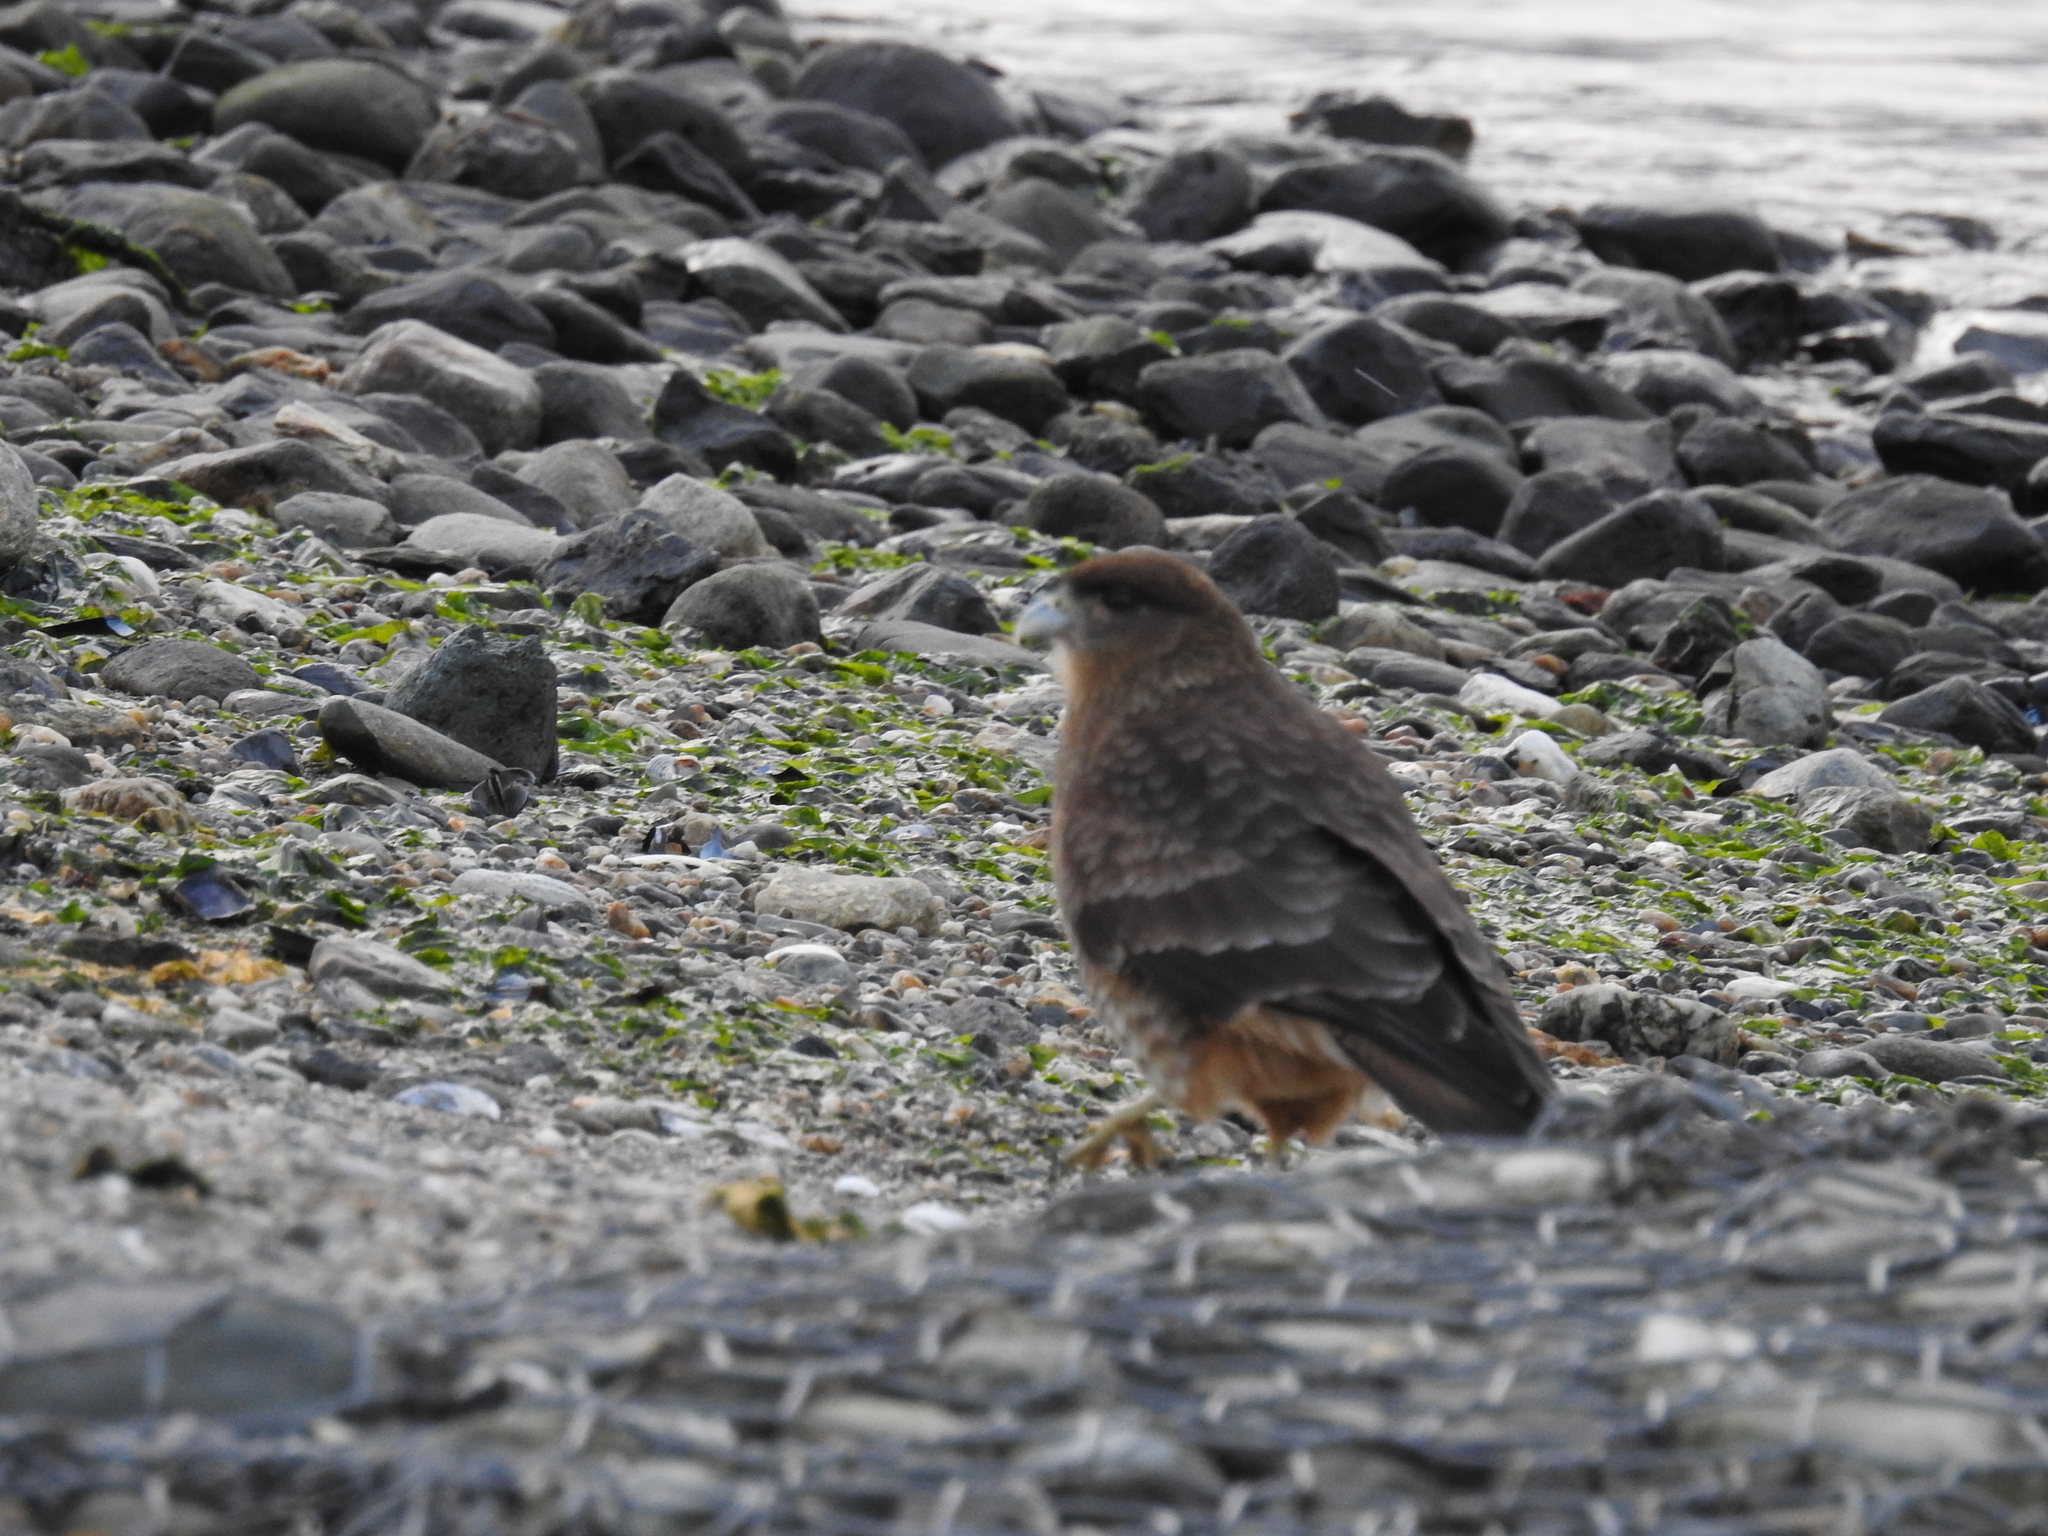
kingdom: Animalia
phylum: Chordata
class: Aves
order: Falconiformes
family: Falconidae
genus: Daptrius
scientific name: Daptrius
